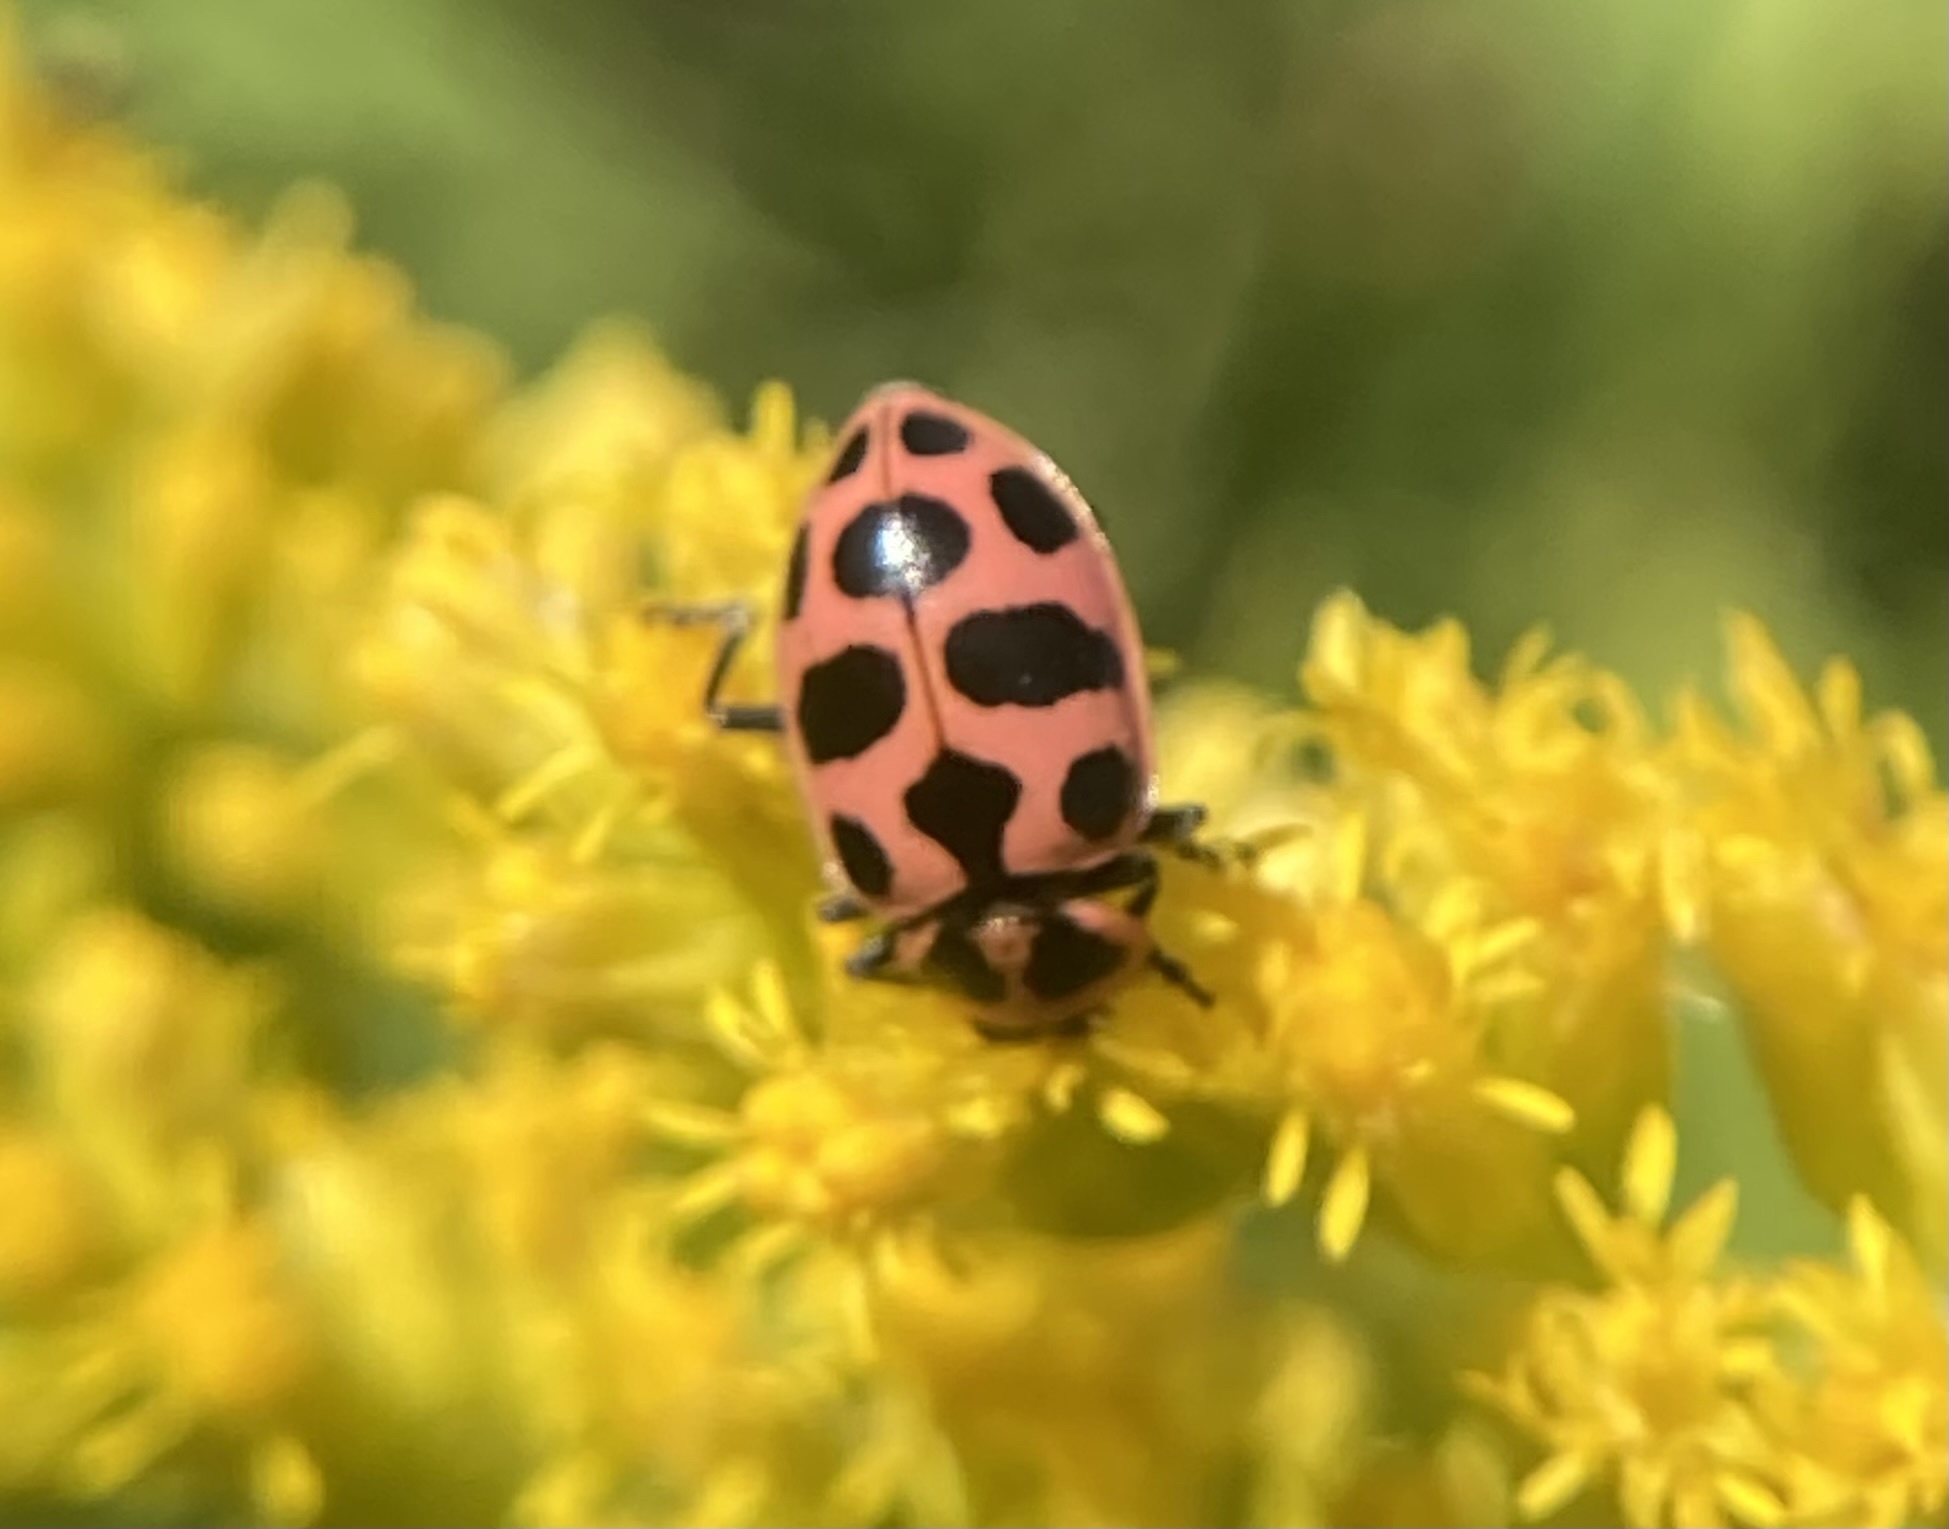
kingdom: Animalia
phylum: Arthropoda
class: Insecta
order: Coleoptera
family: Coccinellidae
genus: Coleomegilla
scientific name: Coleomegilla maculata
